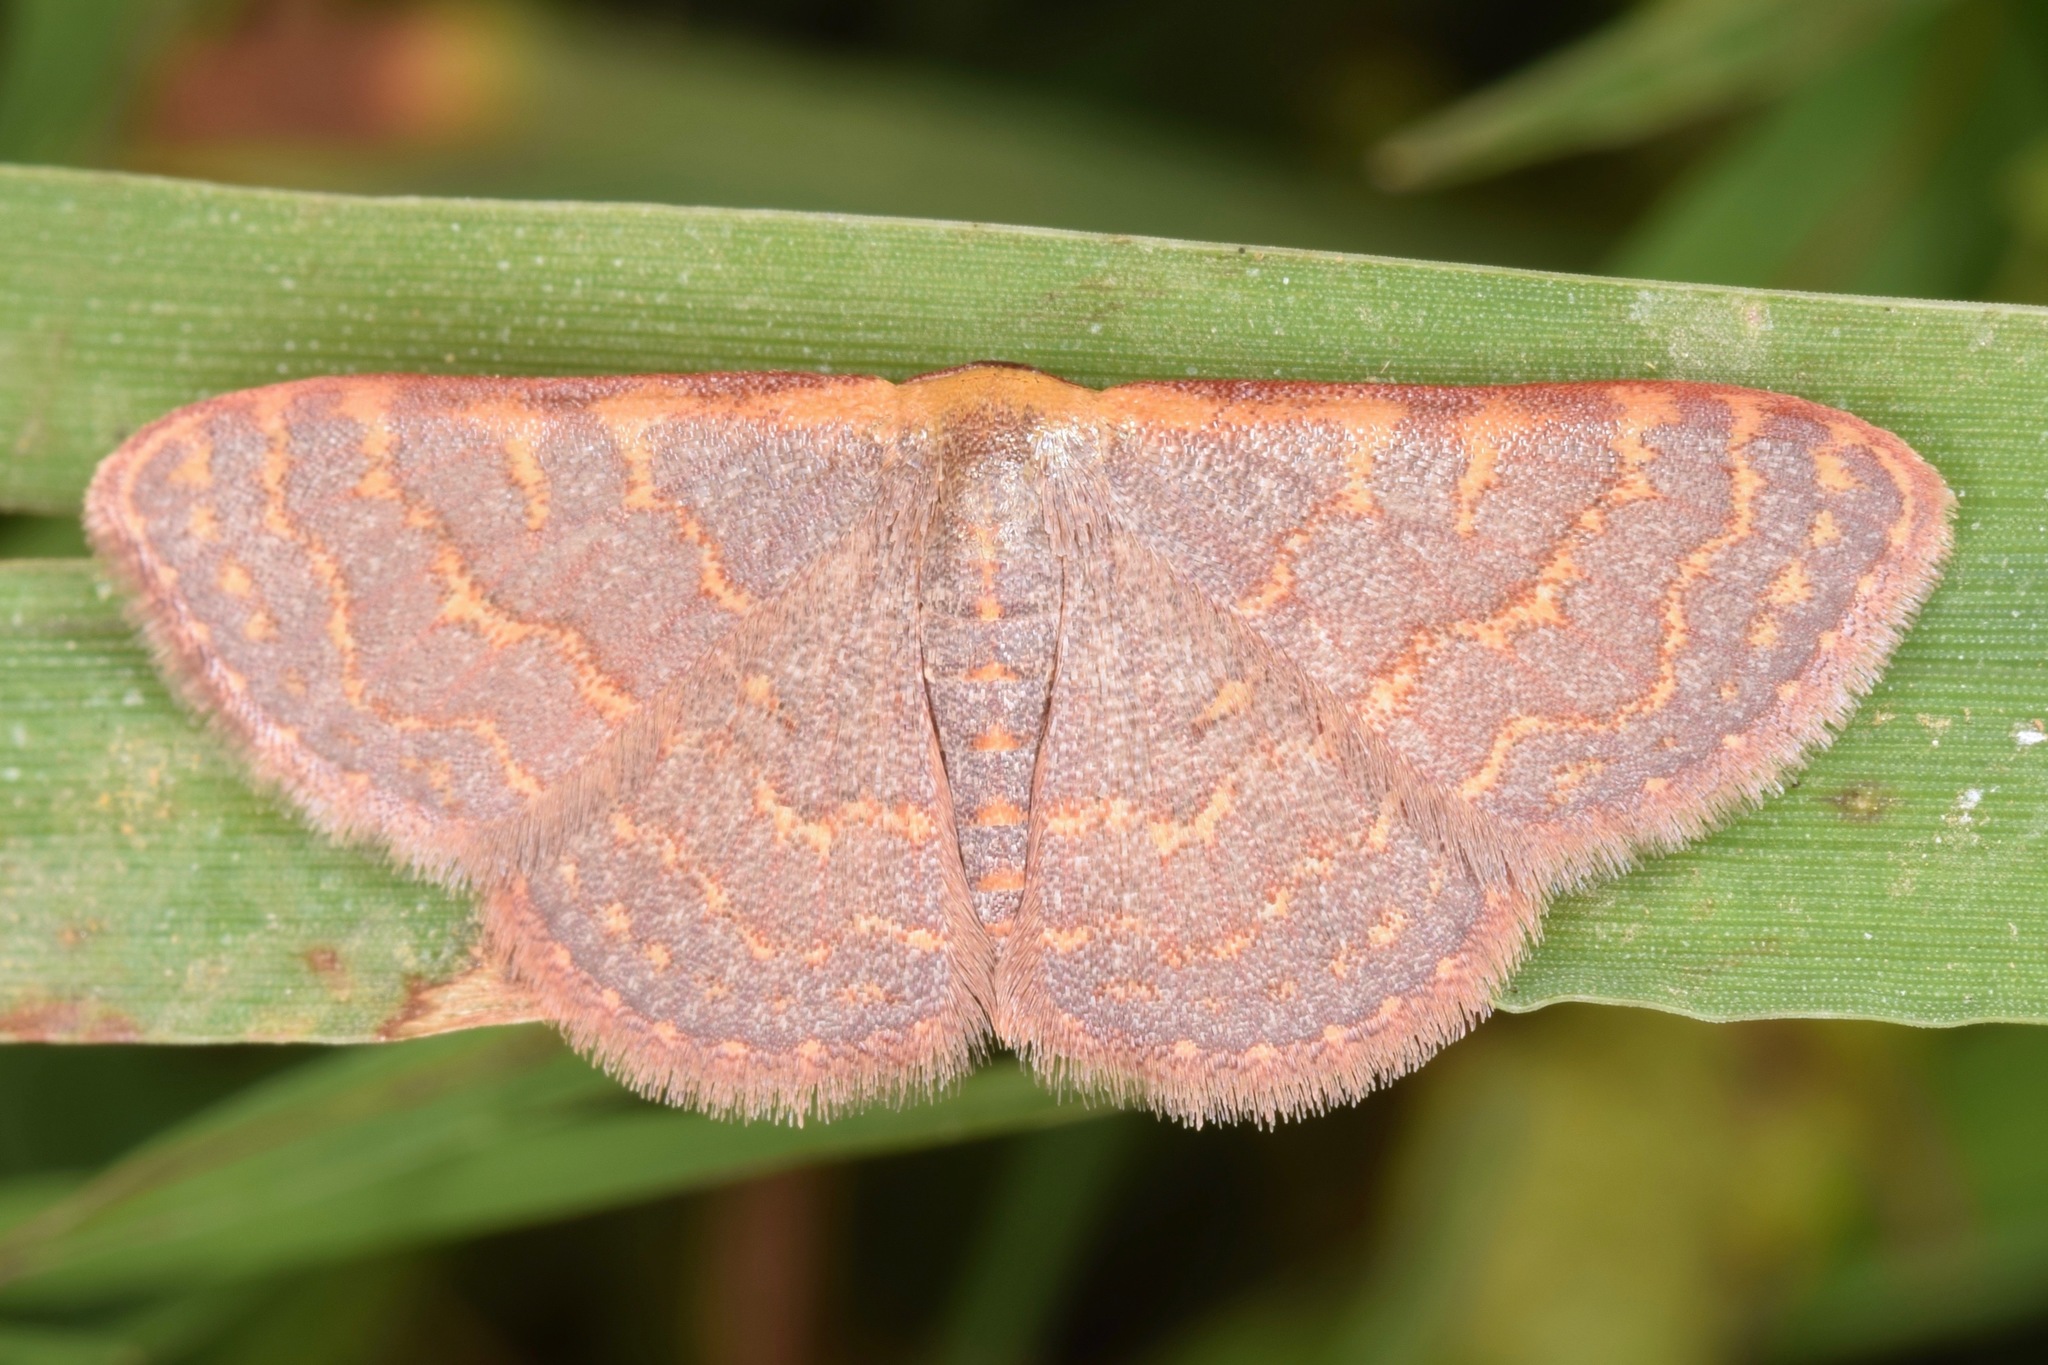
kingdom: Animalia
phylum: Arthropoda
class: Insecta
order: Lepidoptera
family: Geometridae
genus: Leptostales
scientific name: Leptostales pannaria
